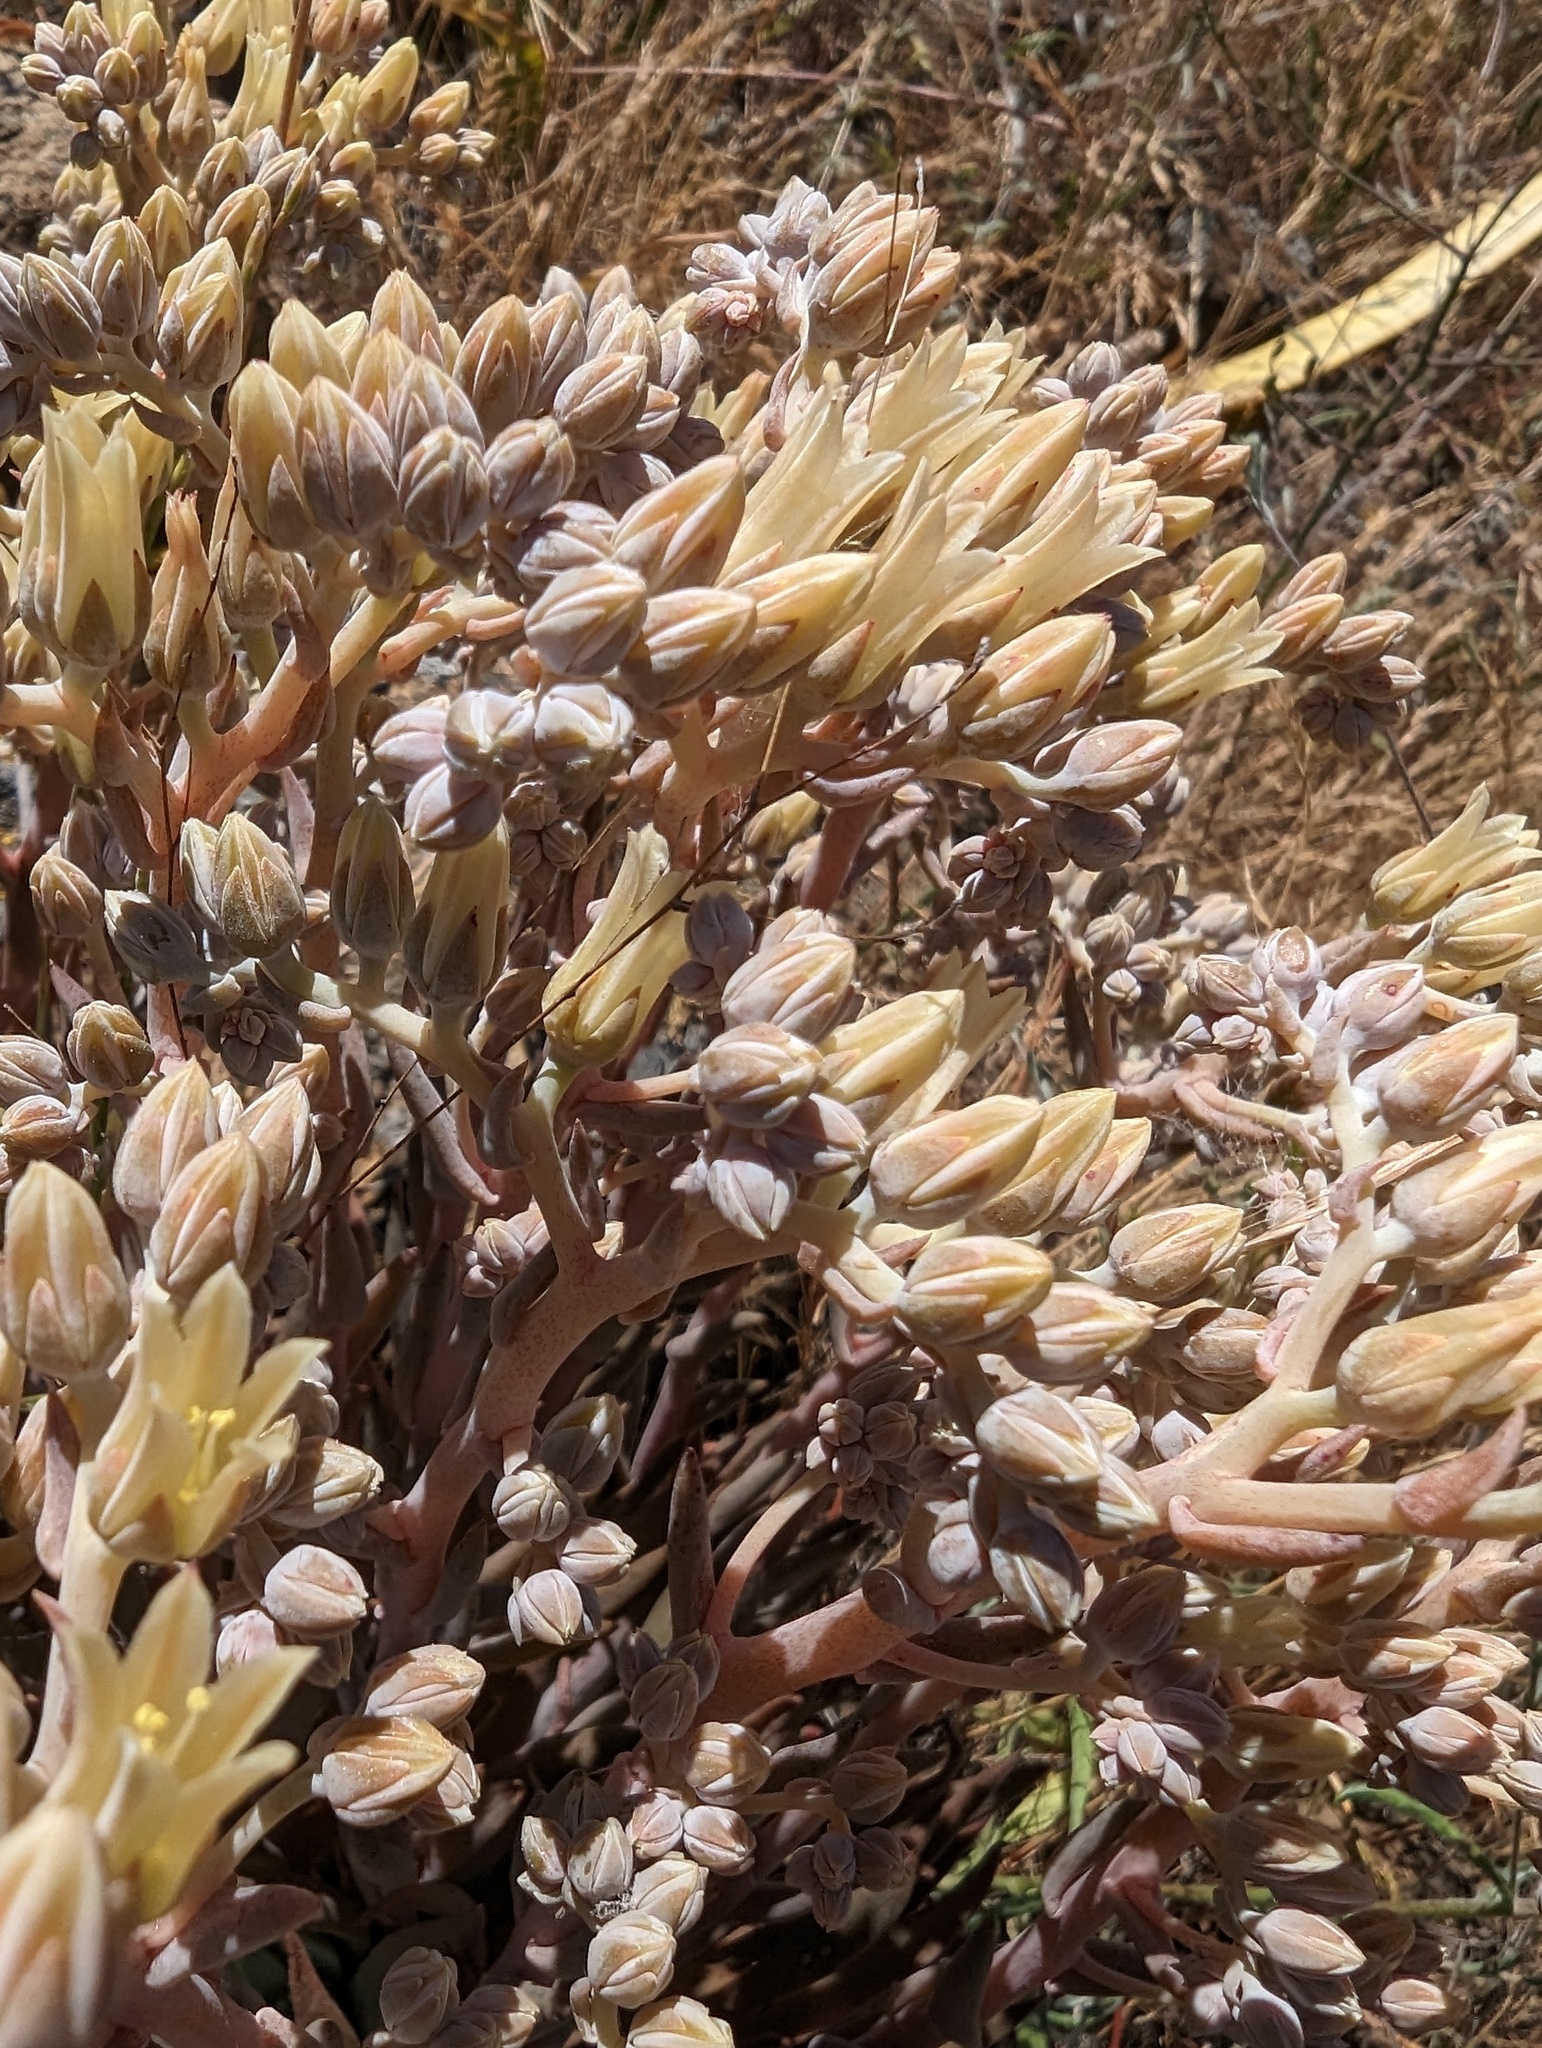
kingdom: Plantae
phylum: Tracheophyta
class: Magnoliopsida
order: Saxifragales
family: Crassulaceae
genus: Dudleya
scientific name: Dudleya abramsii
